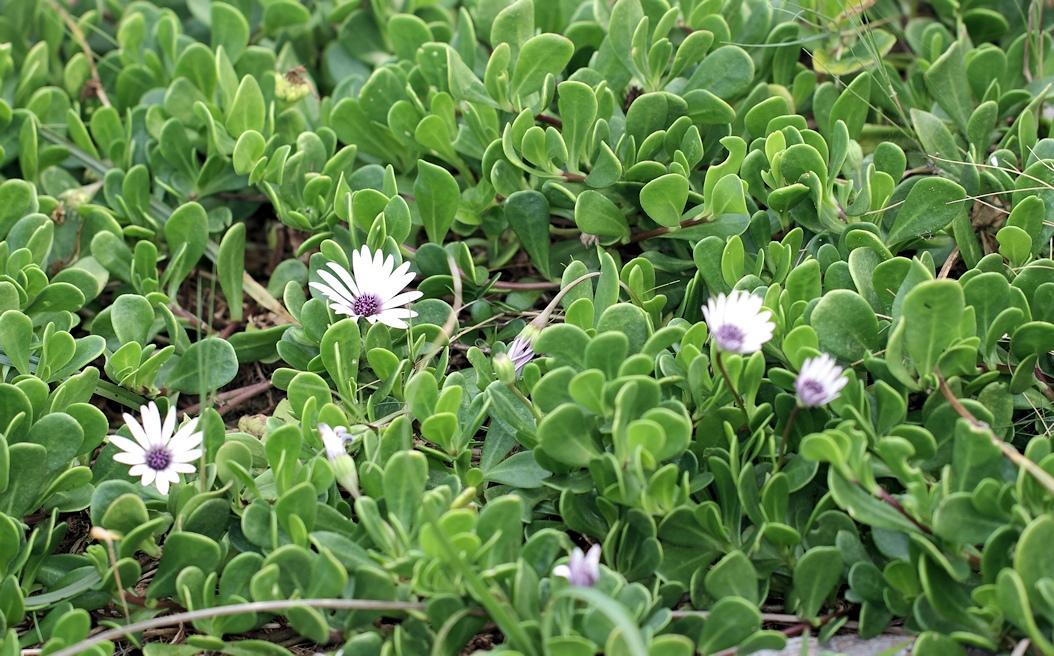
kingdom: Plantae
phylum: Tracheophyta
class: Magnoliopsida
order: Asterales
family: Asteraceae
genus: Dimorphotheca
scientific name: Dimorphotheca fruticosa
